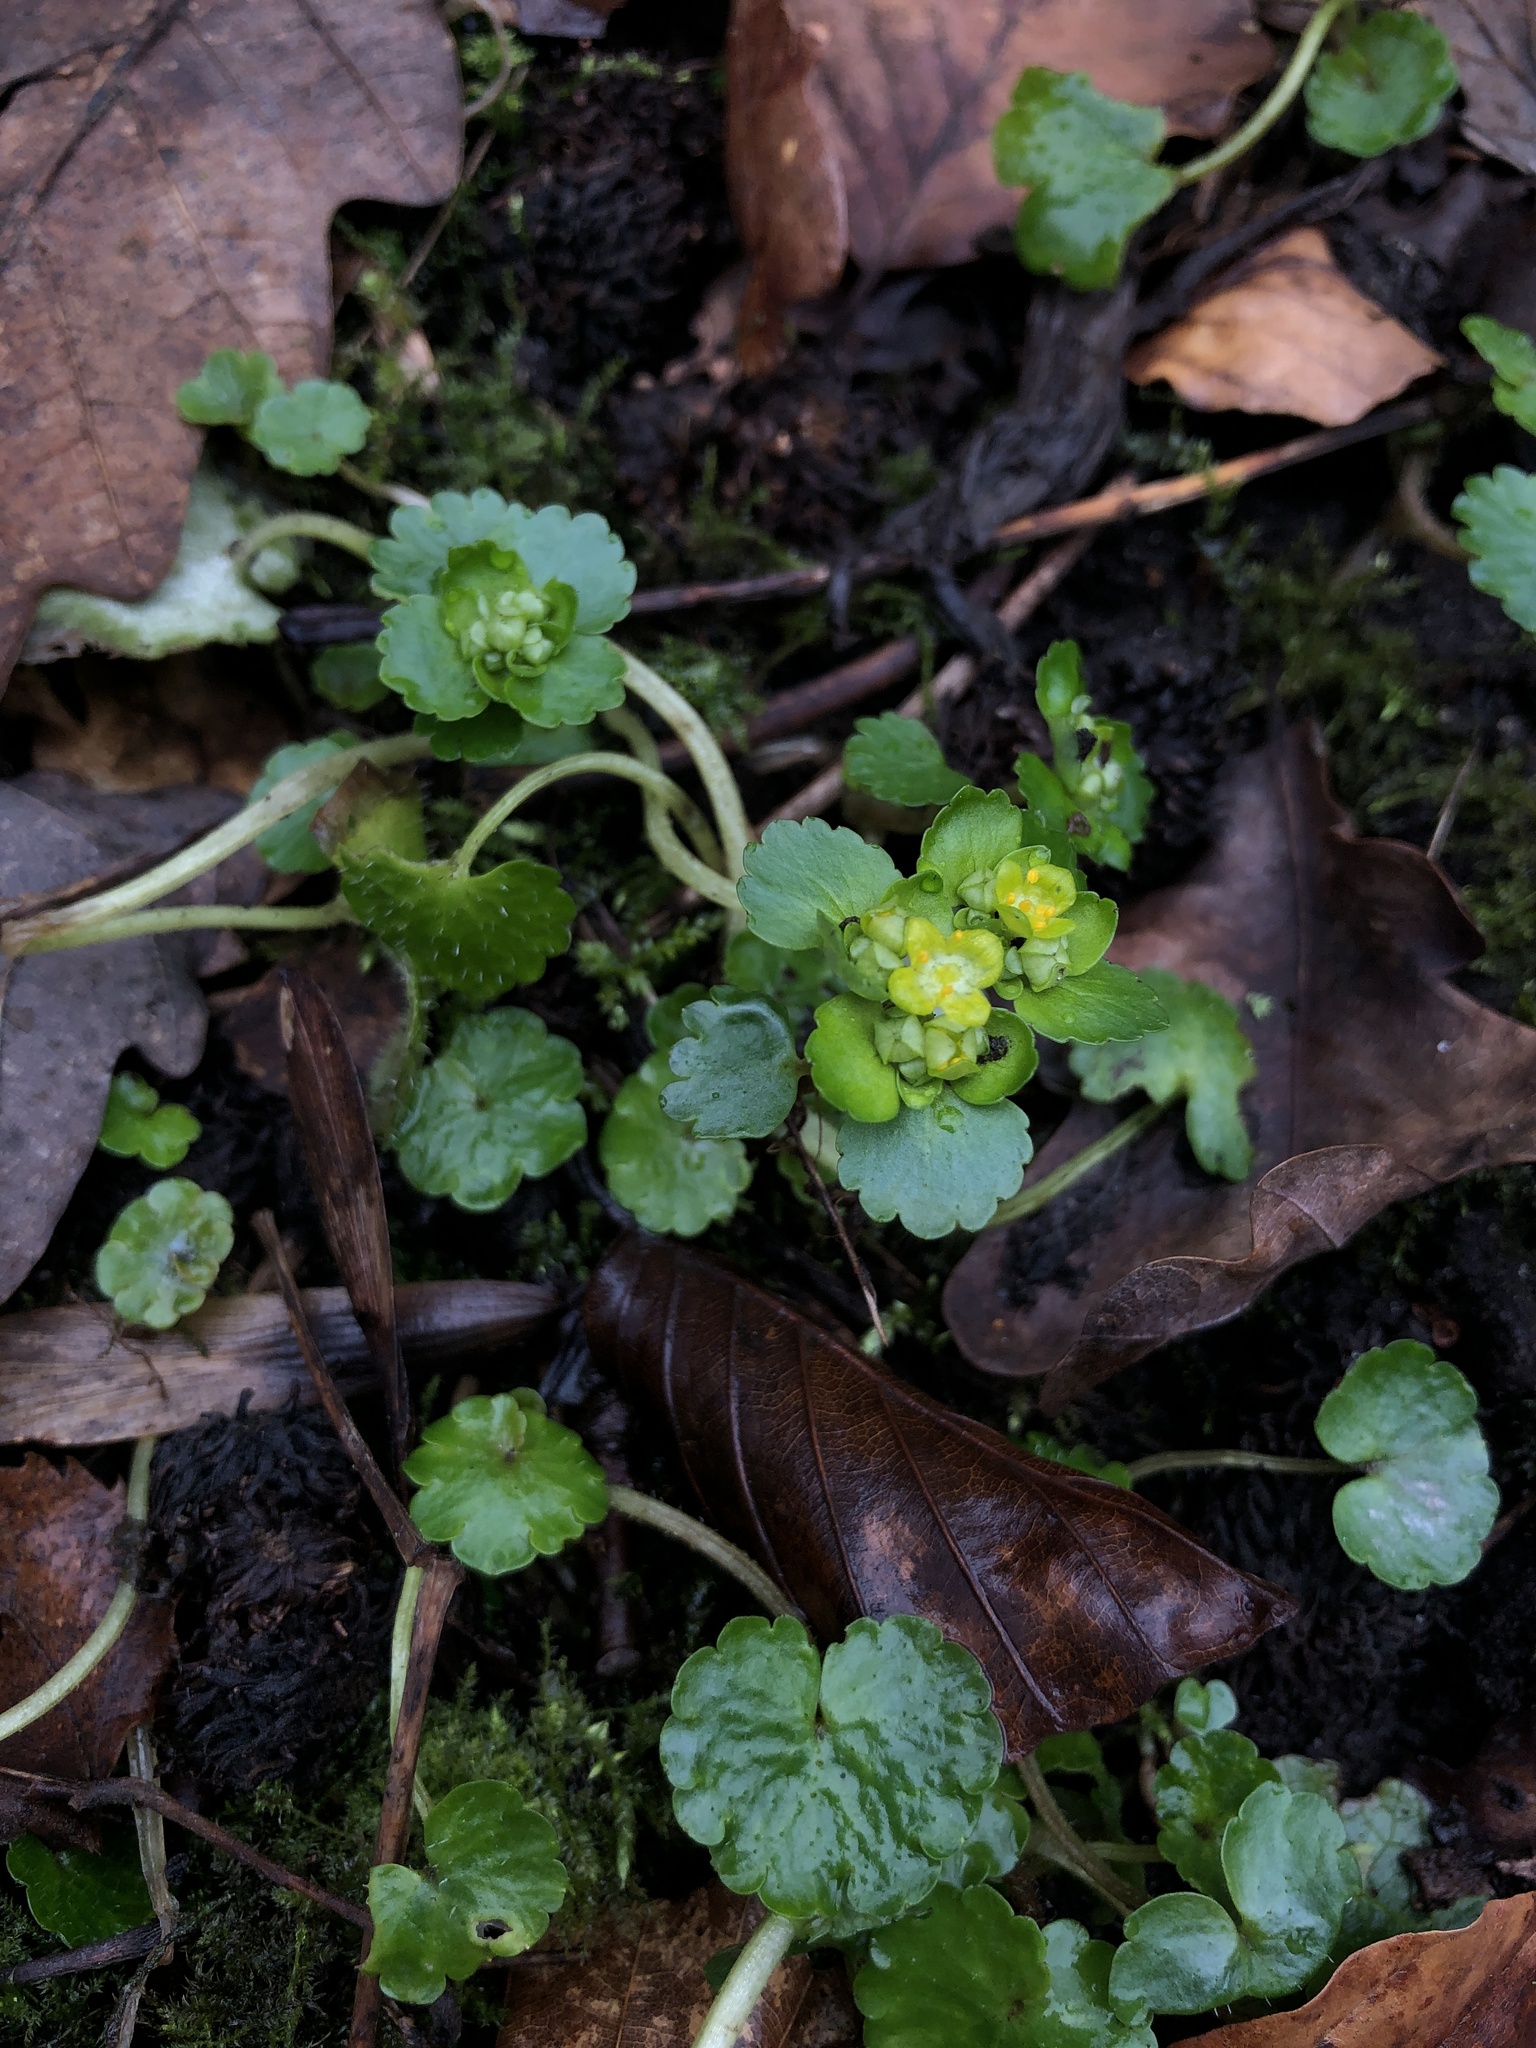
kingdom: Plantae
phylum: Tracheophyta
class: Magnoliopsida
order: Saxifragales
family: Saxifragaceae
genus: Chrysosplenium
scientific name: Chrysosplenium alternifolium
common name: Alternate-leaved golden-saxifrage
